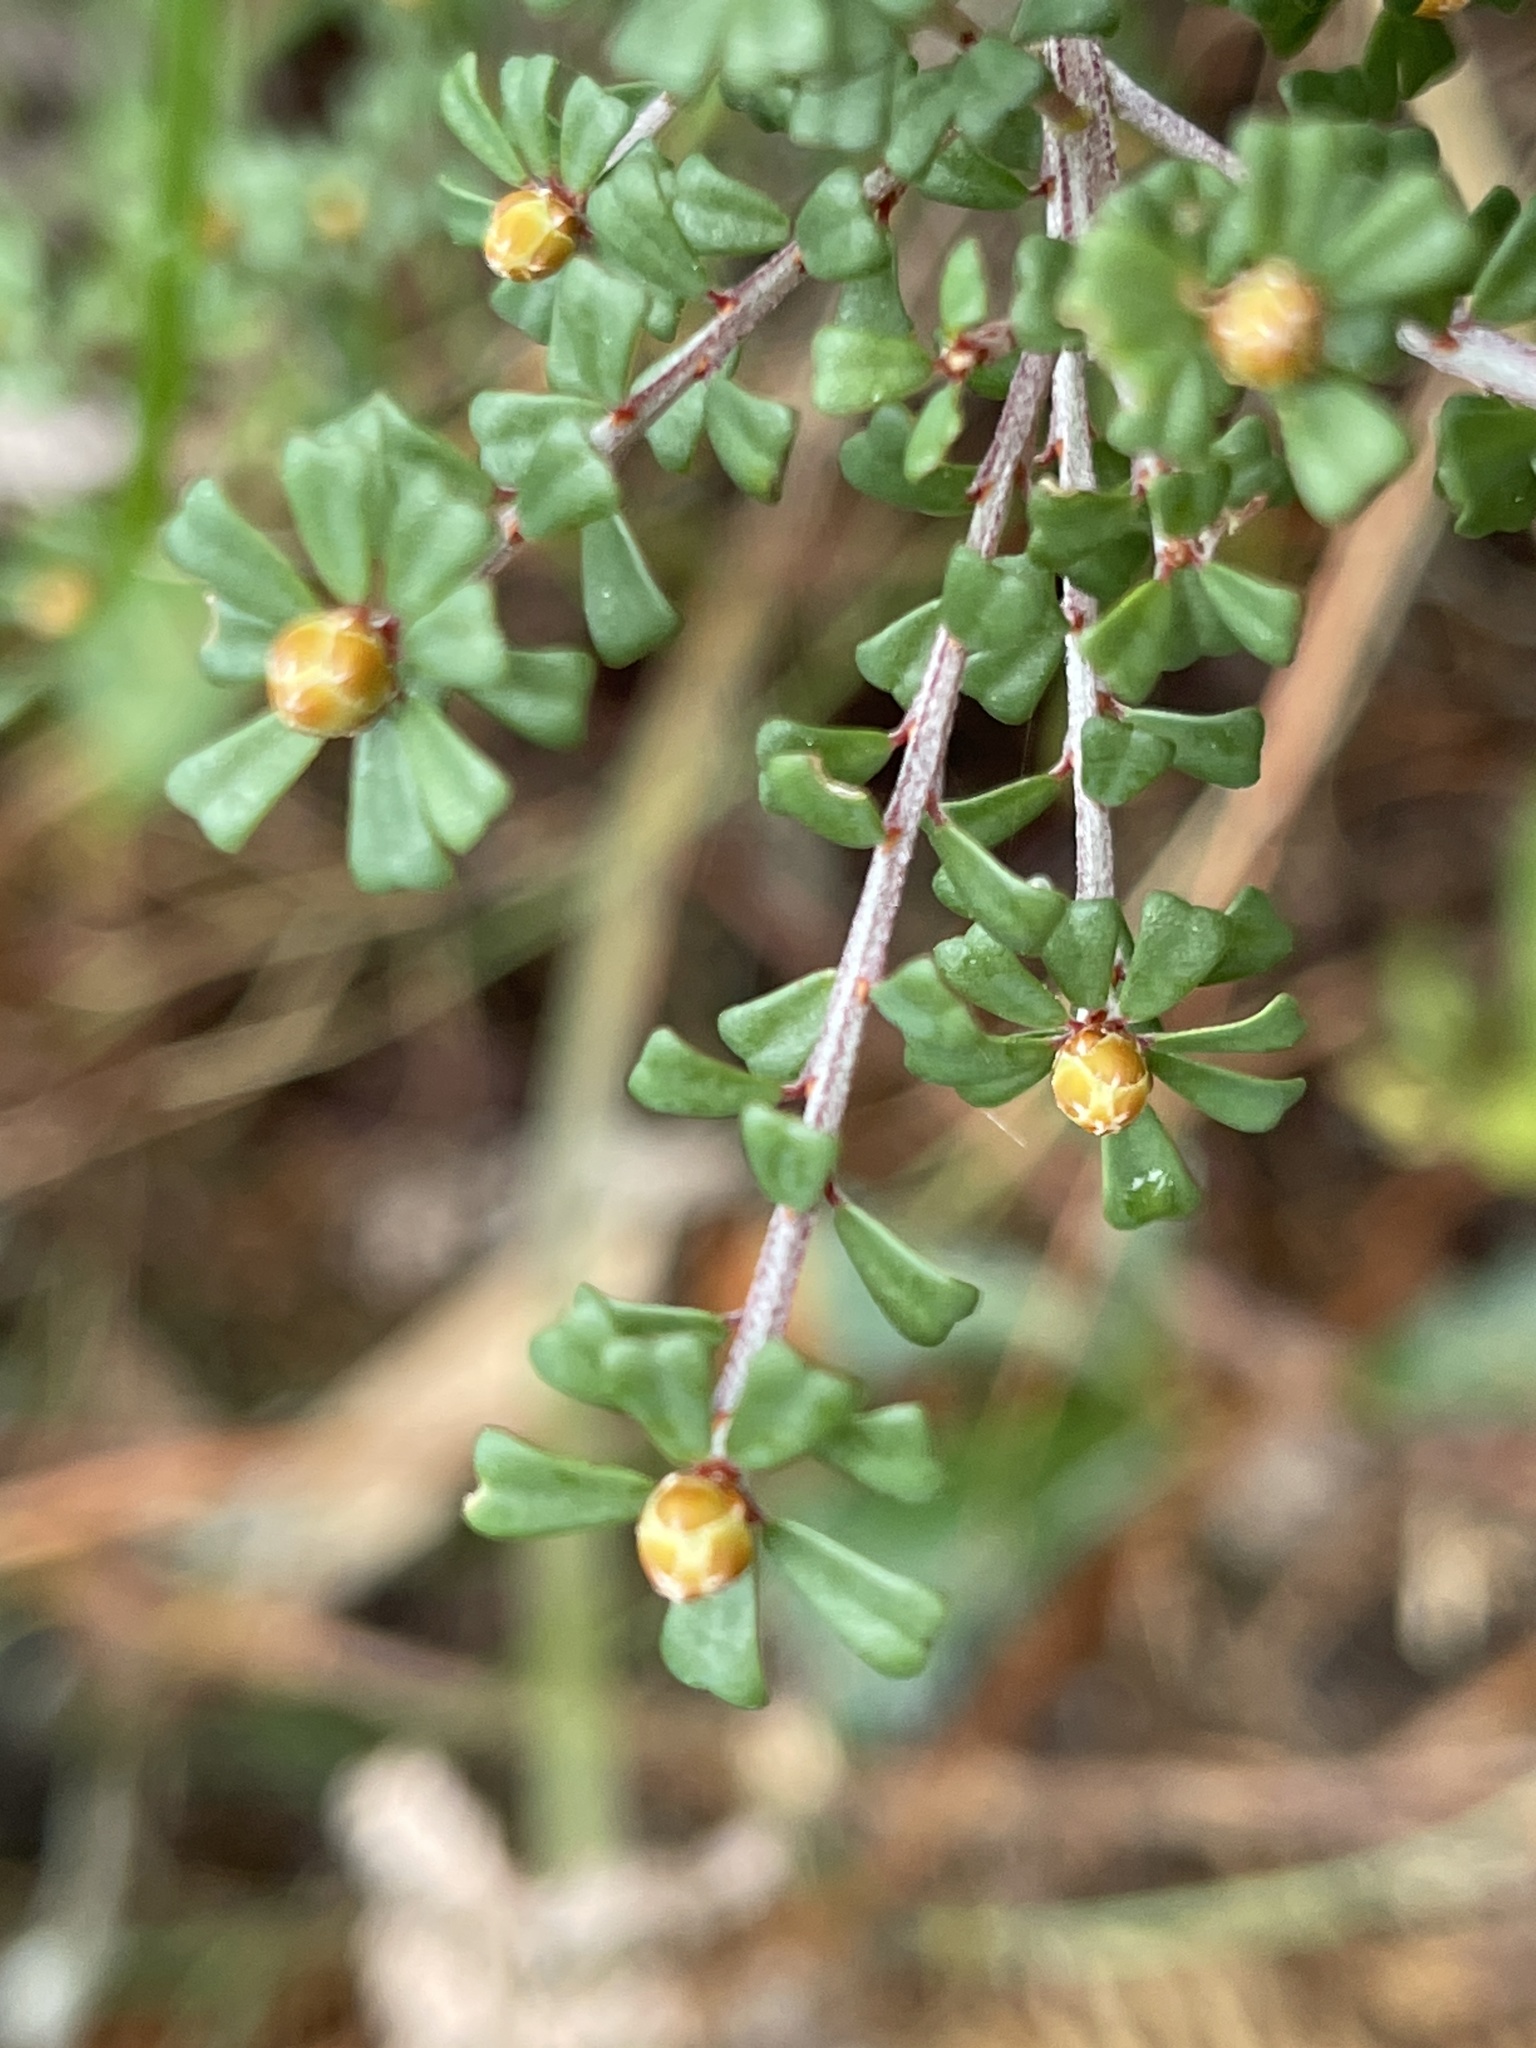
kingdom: Plantae
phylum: Tracheophyta
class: Magnoliopsida
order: Fabales
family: Fabaceae
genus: Pultenaea
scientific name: Pultenaea retusa
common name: Blunt bush-pea
